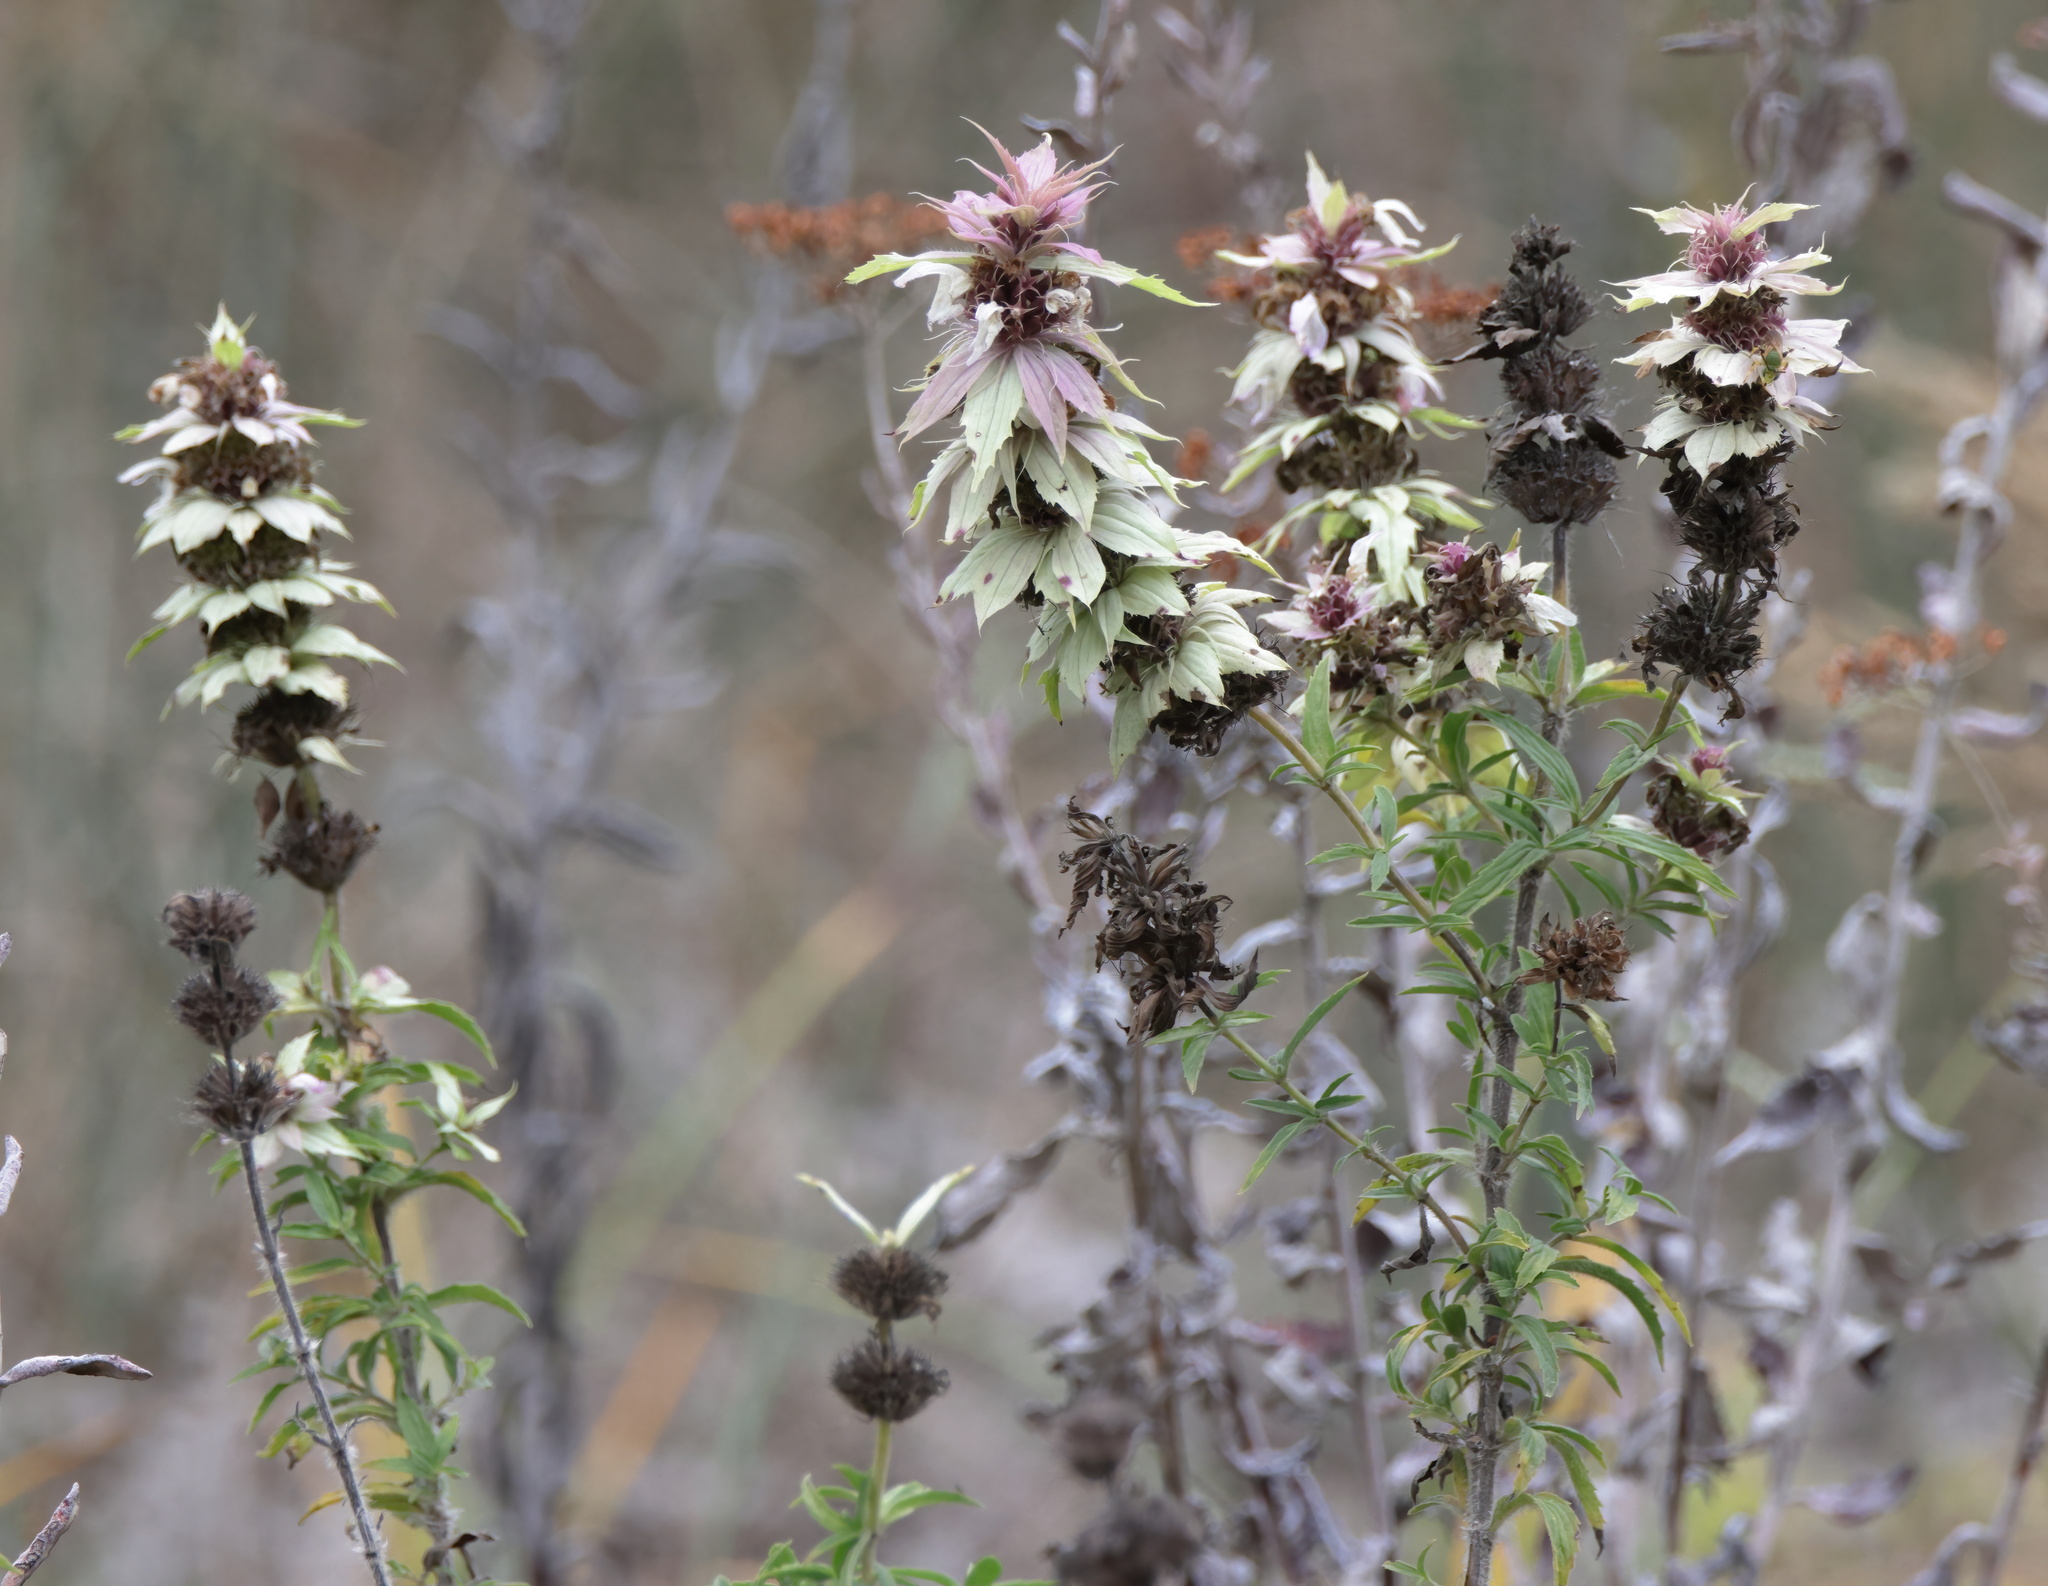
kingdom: Plantae
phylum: Tracheophyta
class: Magnoliopsida
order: Lamiales
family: Lamiaceae
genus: Monarda
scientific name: Monarda maritima
